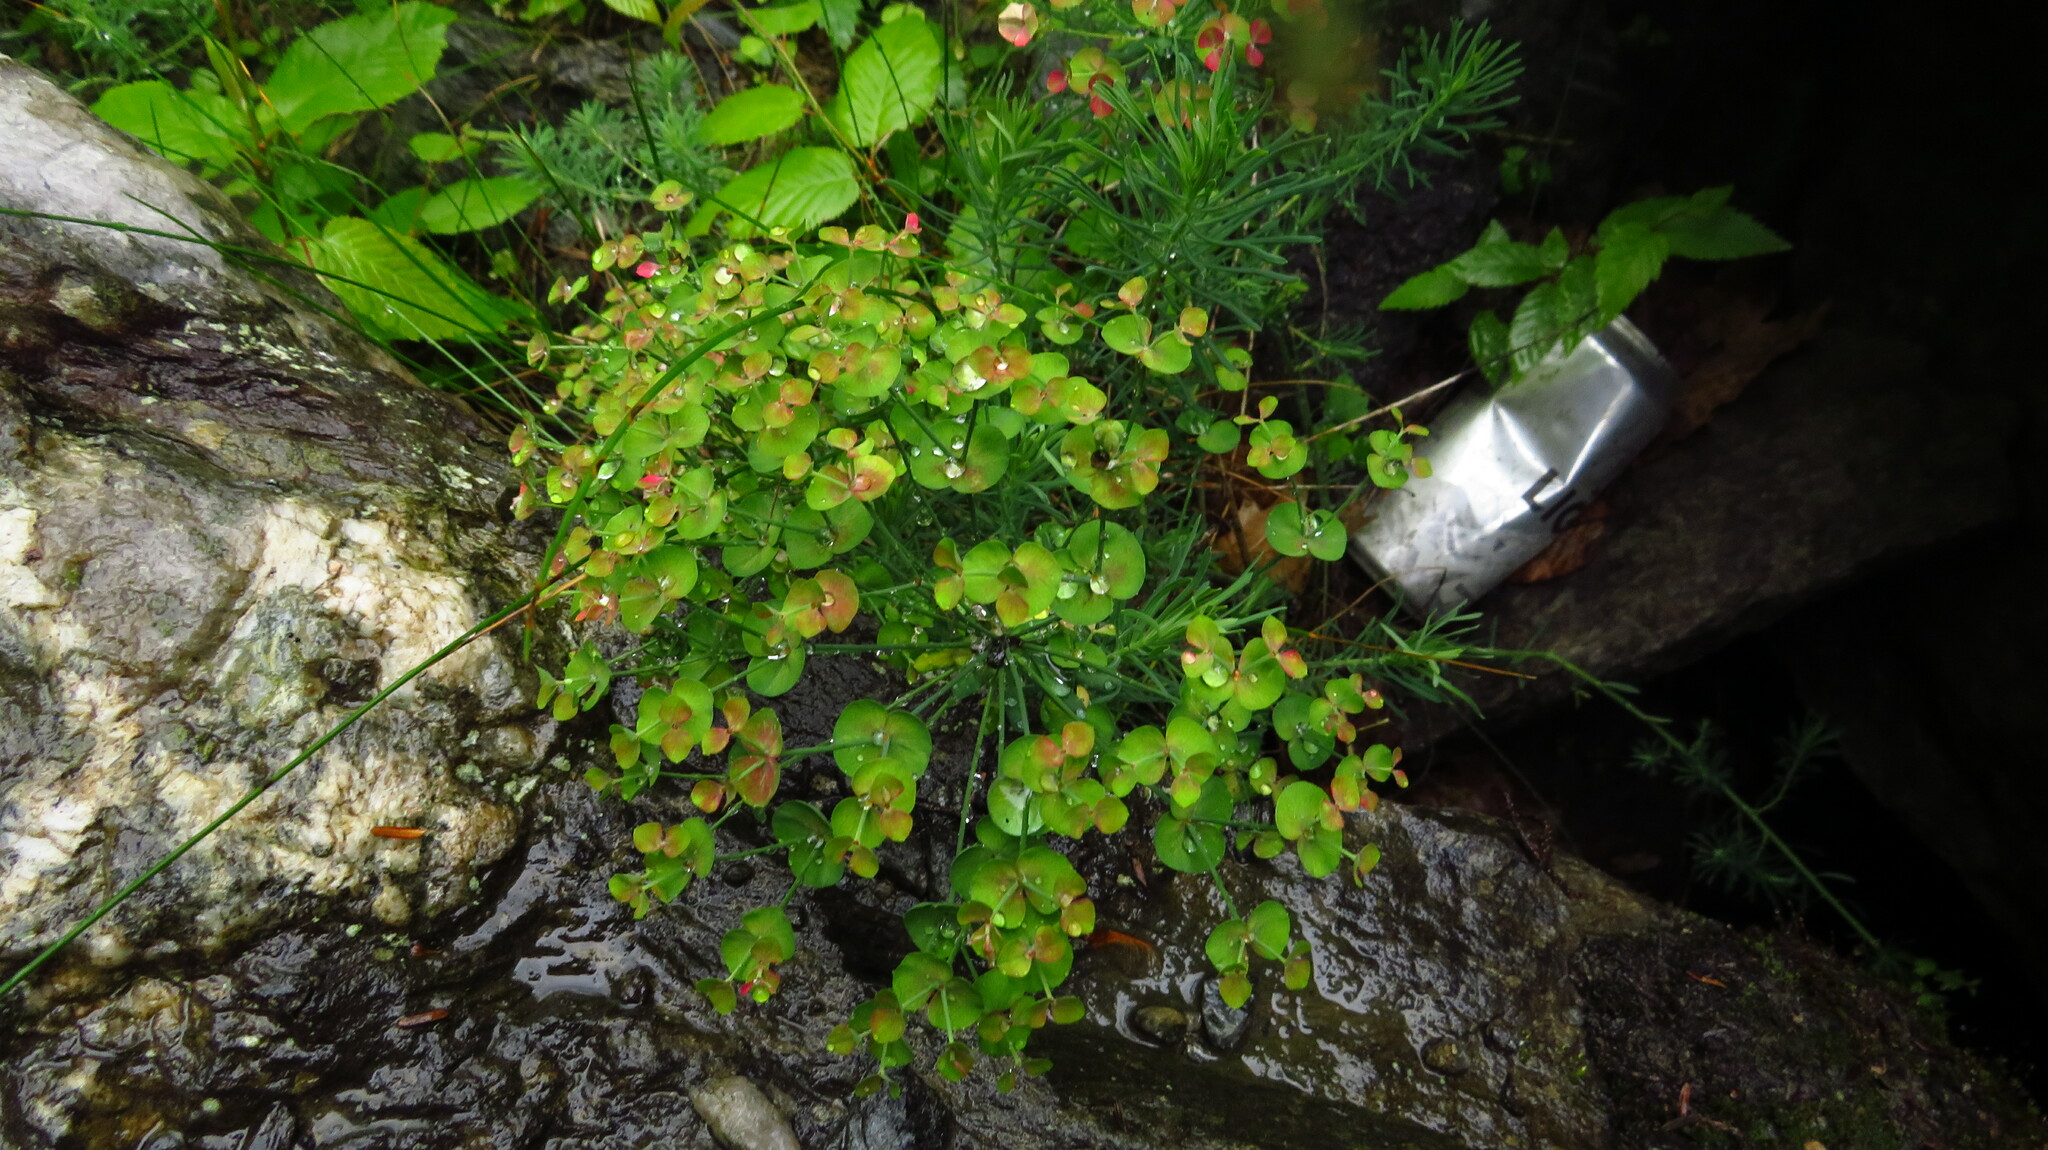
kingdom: Plantae
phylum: Tracheophyta
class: Magnoliopsida
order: Malpighiales
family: Euphorbiaceae
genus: Euphorbia
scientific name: Euphorbia cyparissias
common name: Cypress spurge
